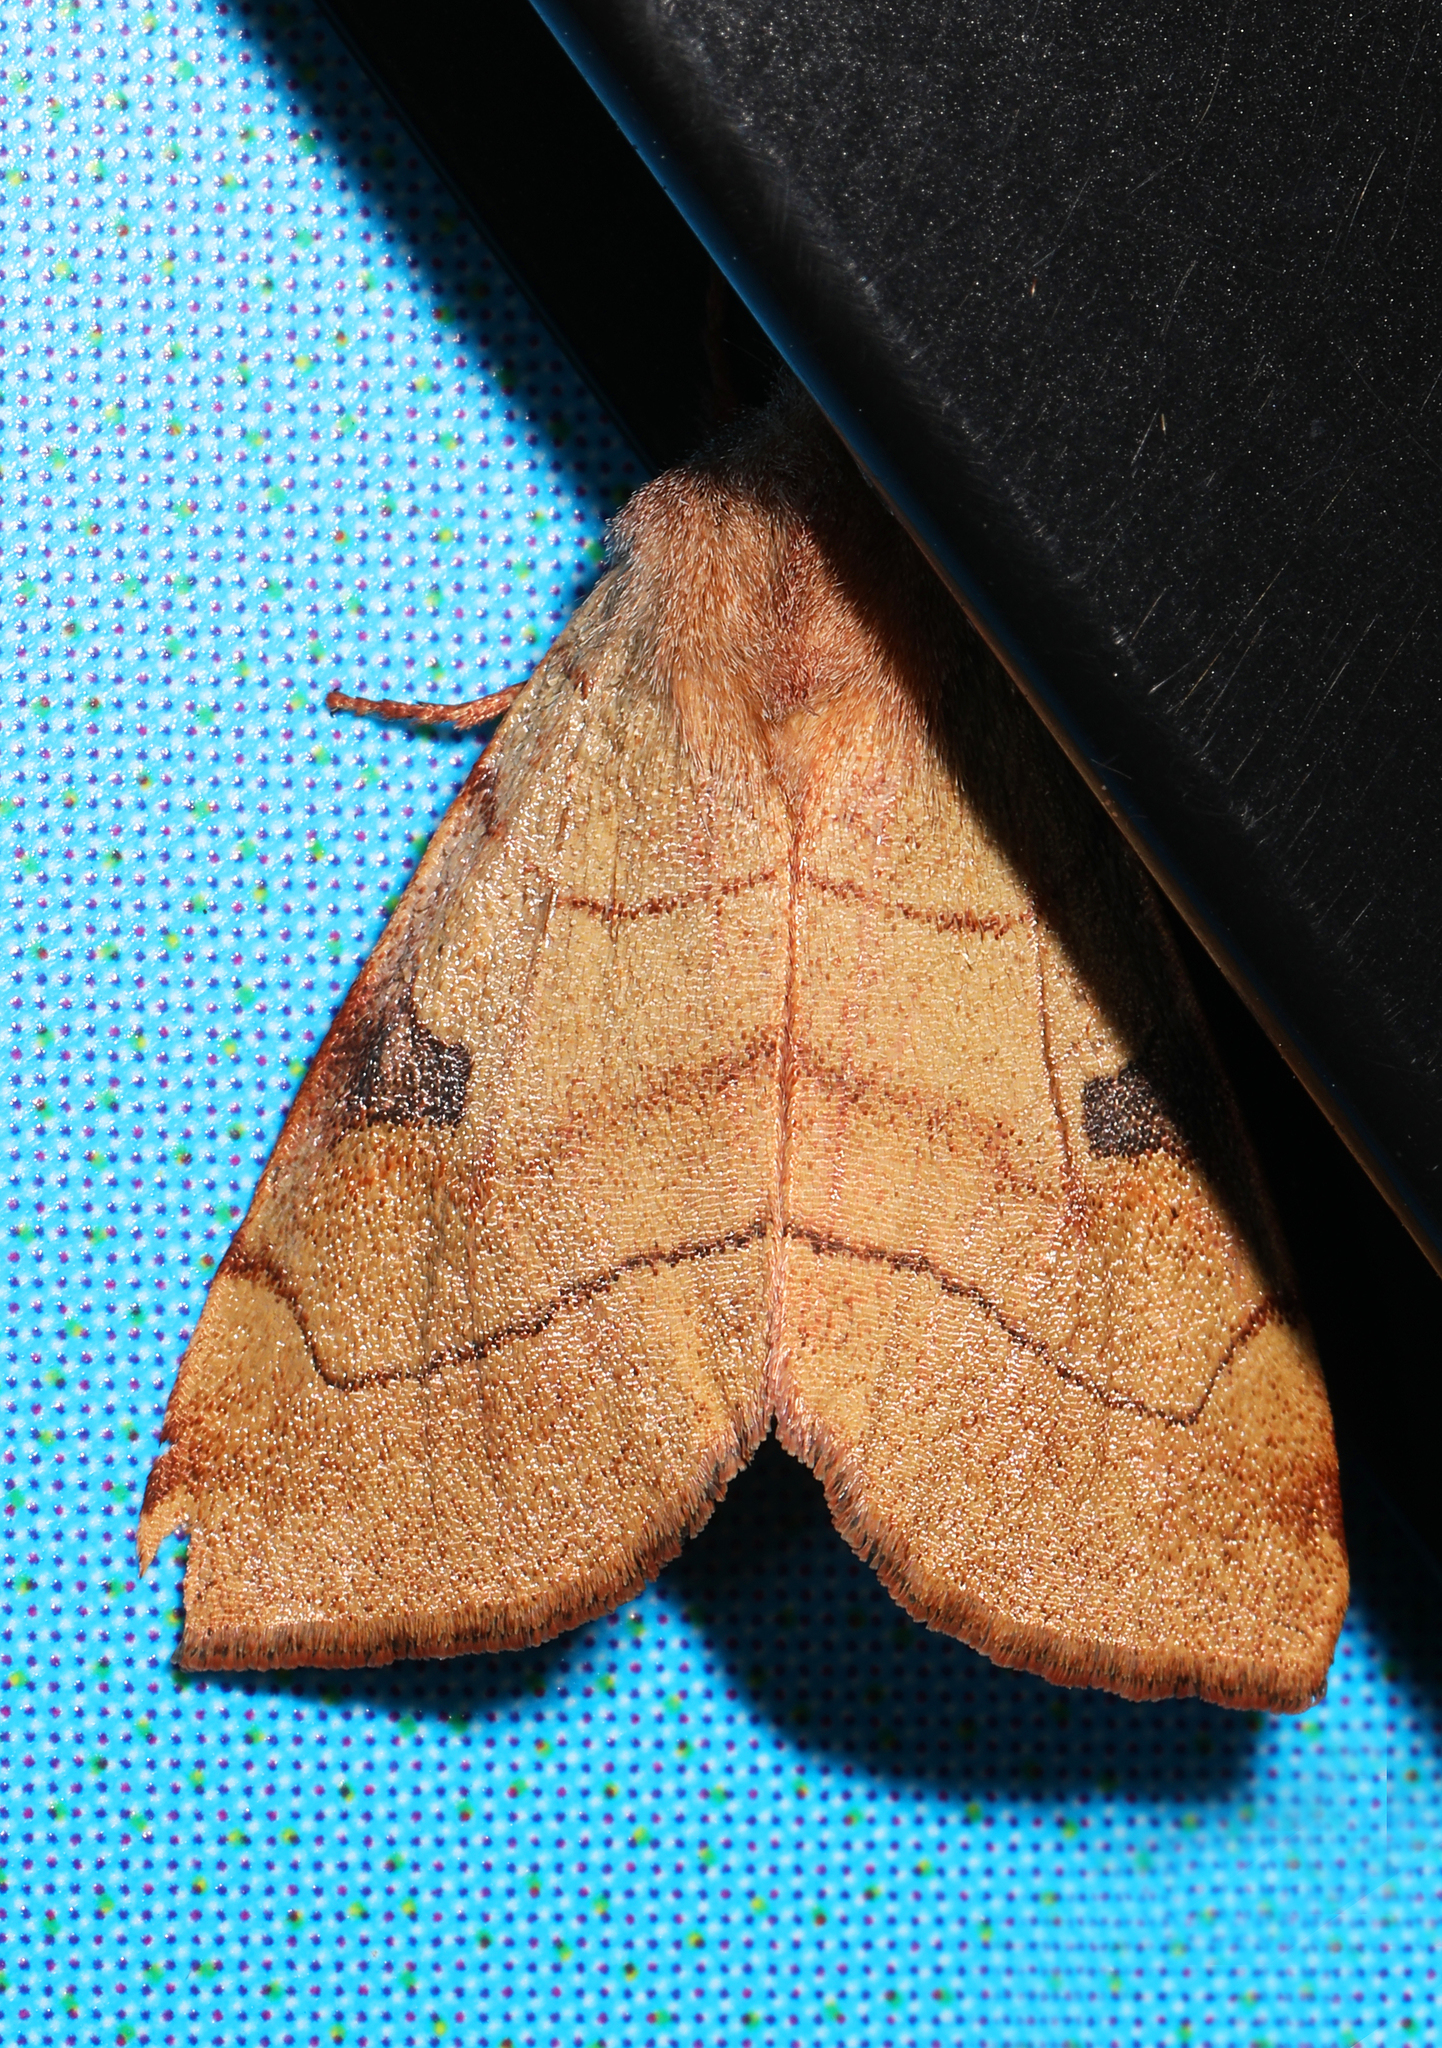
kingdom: Animalia
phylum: Arthropoda
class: Insecta
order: Lepidoptera
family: Noctuidae
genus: Choephora
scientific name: Choephora fungorum
